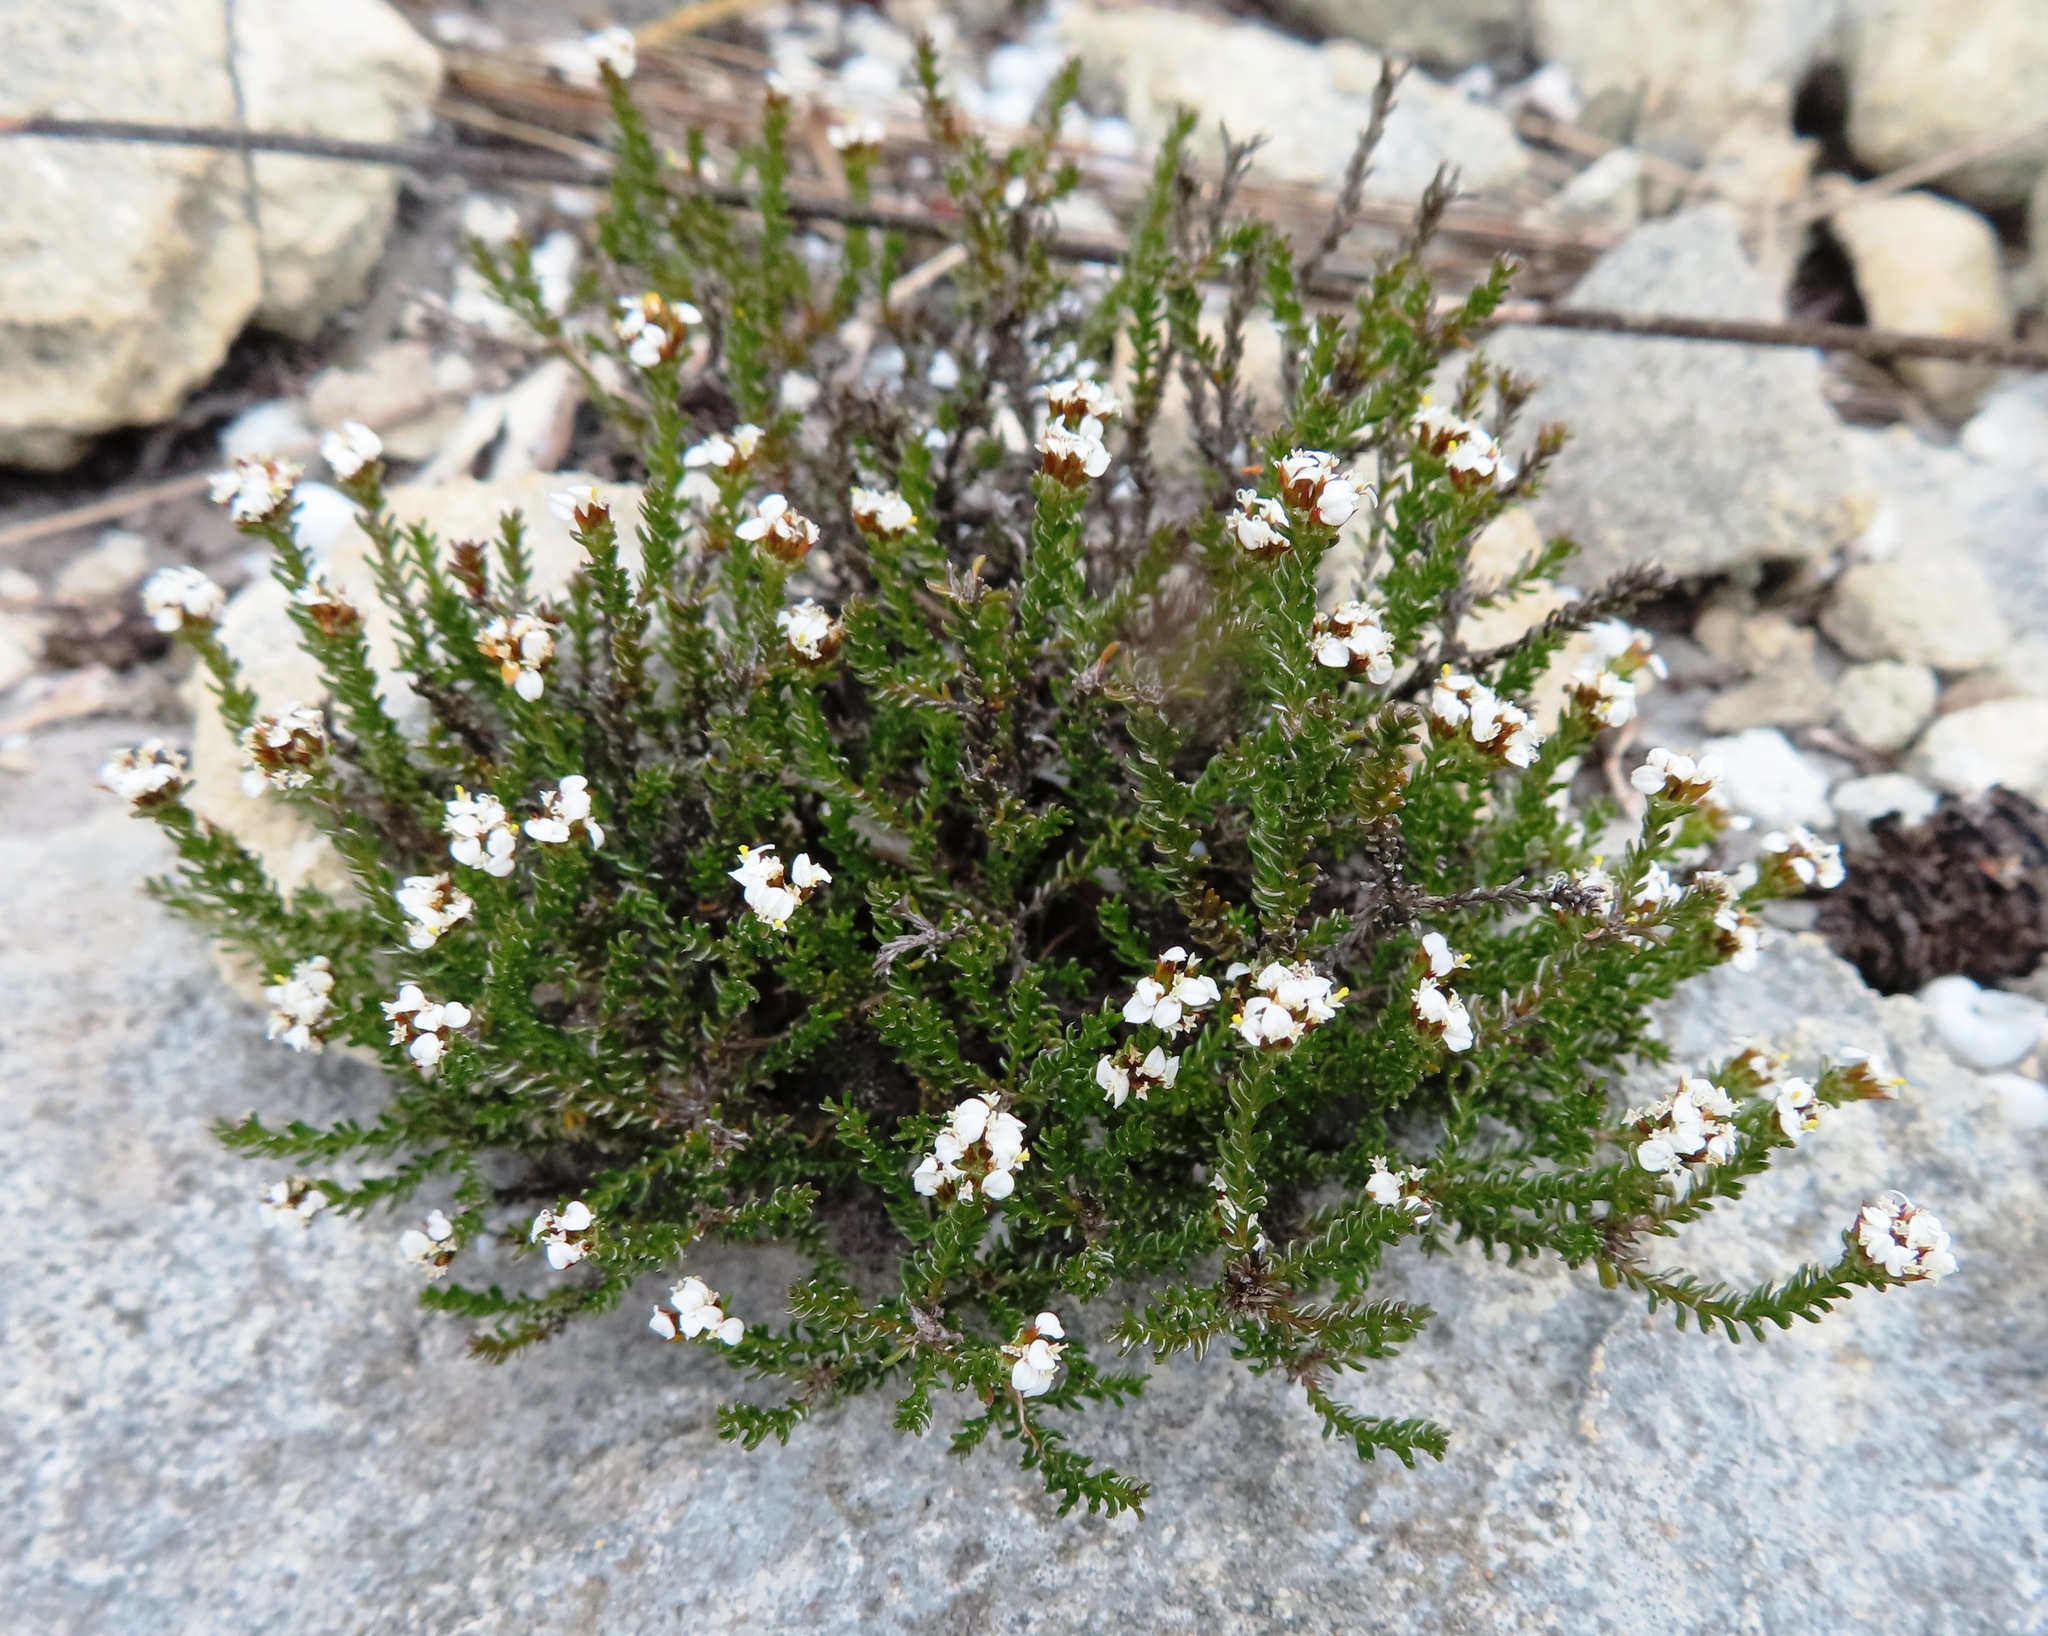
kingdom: Plantae
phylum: Tracheophyta
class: Magnoliopsida
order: Asterales
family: Asteraceae
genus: Disparago
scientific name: Disparago anomala
